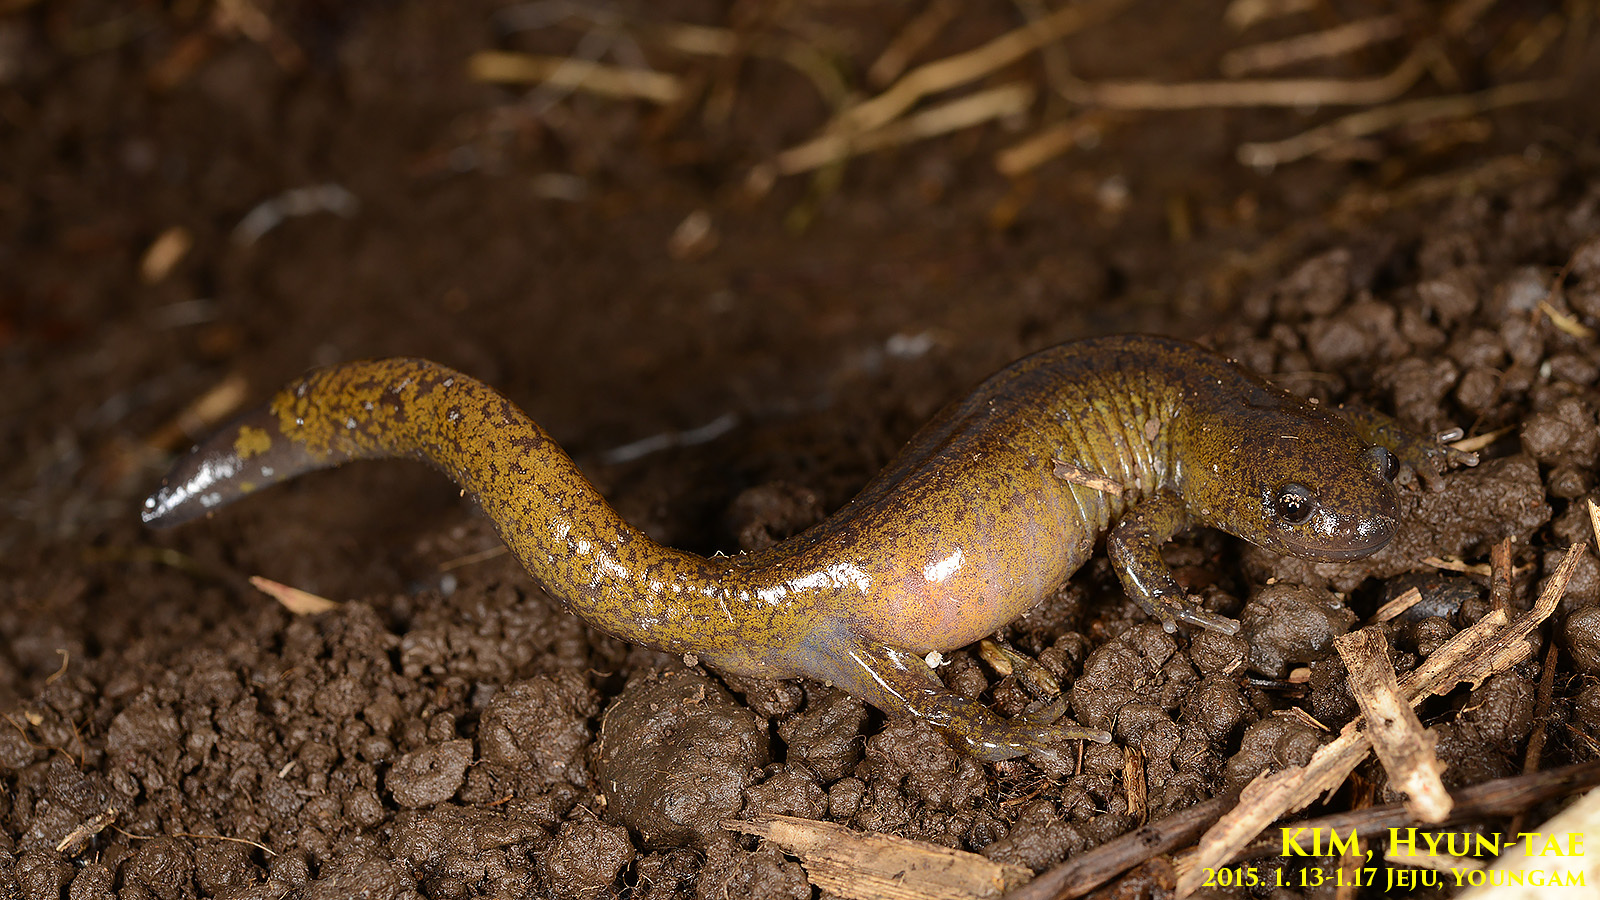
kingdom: Animalia
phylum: Chordata
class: Amphibia
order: Caudata
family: Hynobiidae
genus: Hynobius
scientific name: Hynobius quelpaertensis
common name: Cheju salamander
